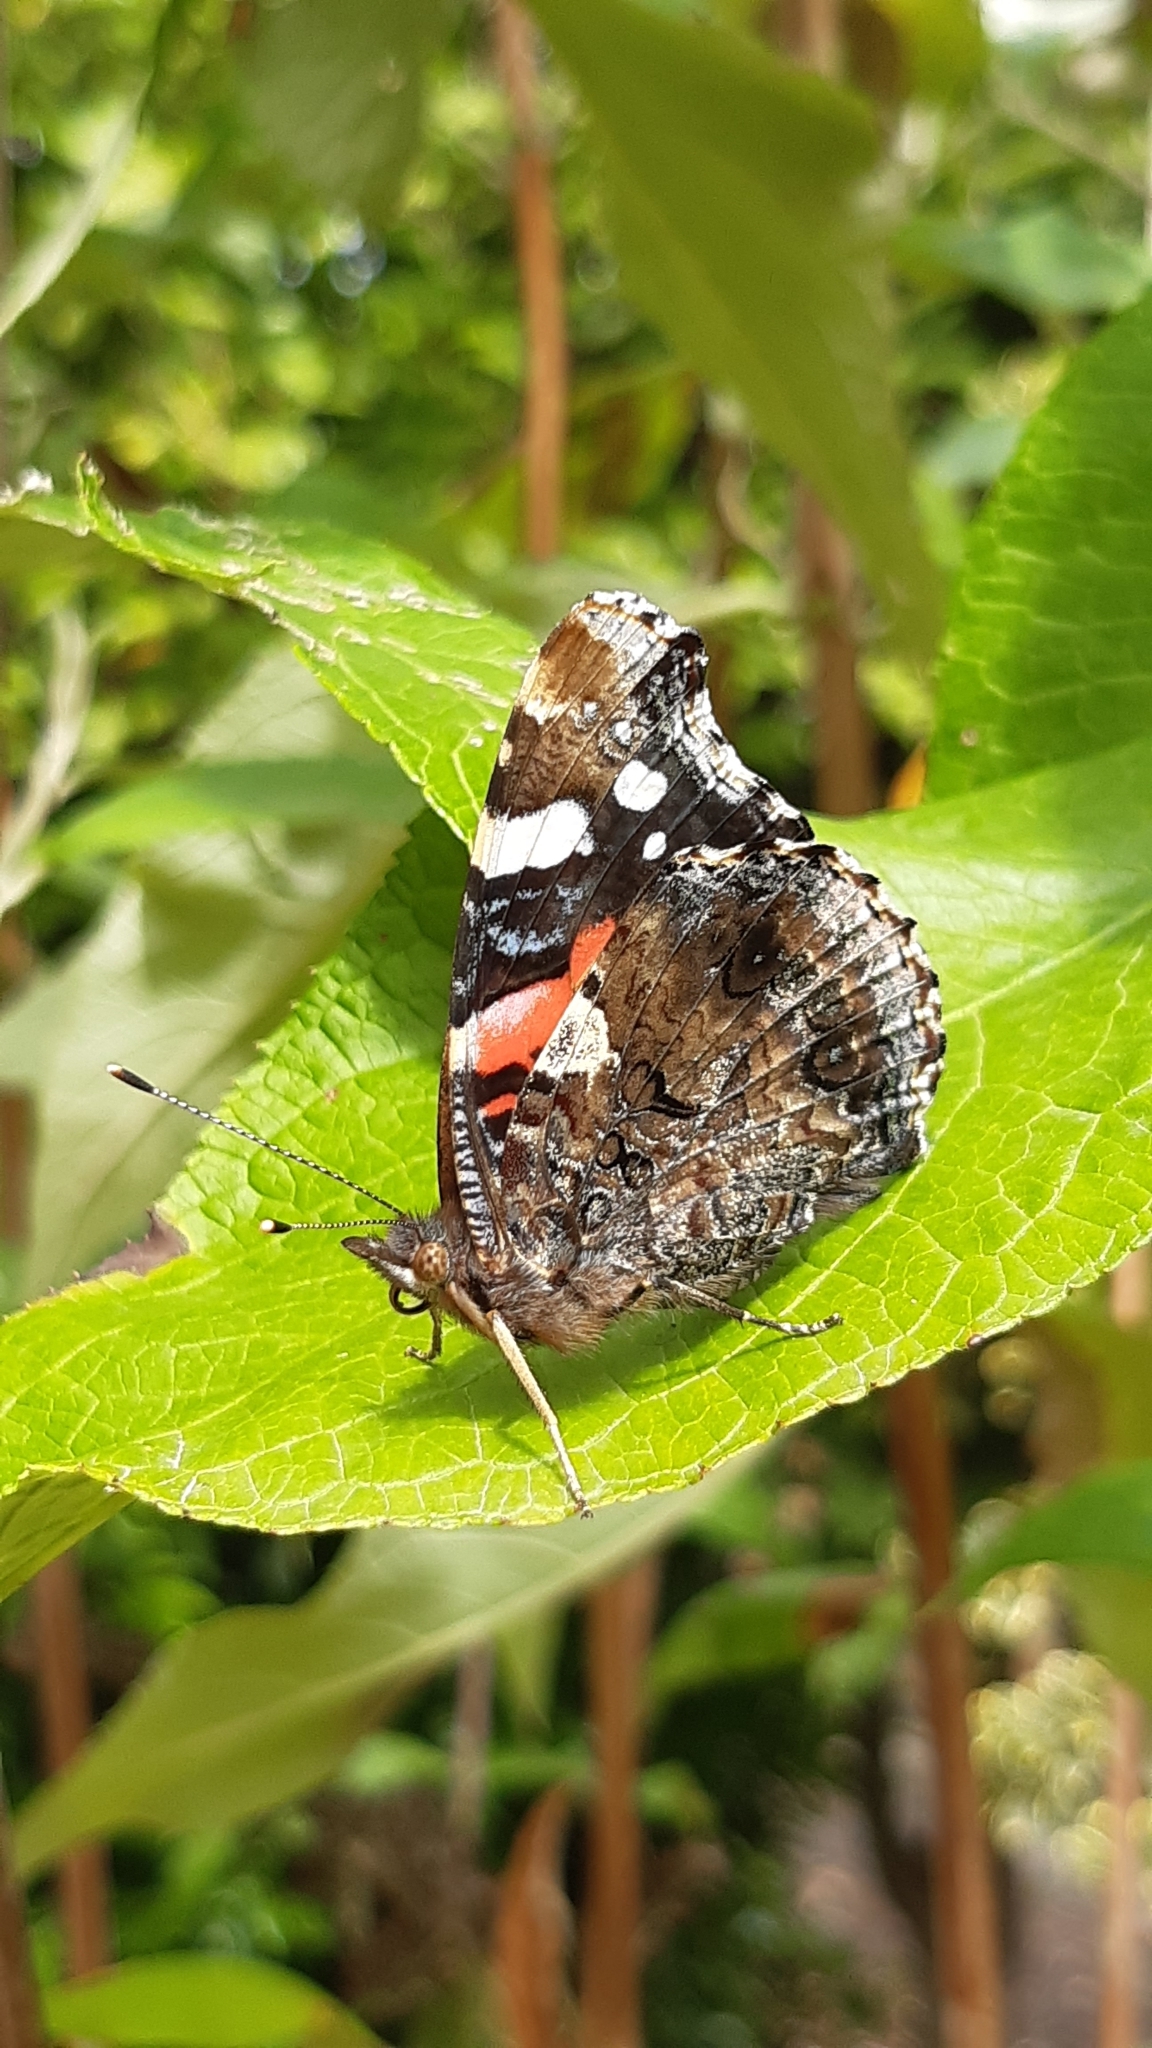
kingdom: Animalia
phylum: Arthropoda
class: Insecta
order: Lepidoptera
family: Nymphalidae
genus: Vanessa
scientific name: Vanessa atalanta
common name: Red admiral
